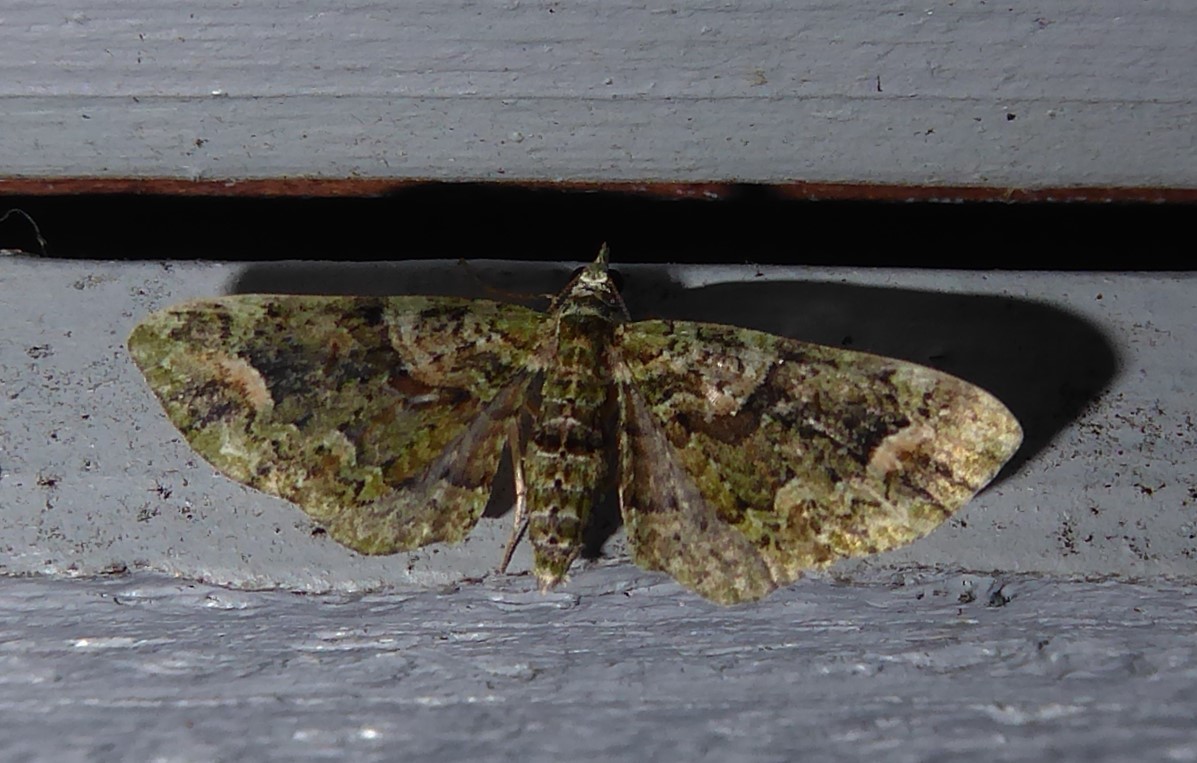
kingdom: Animalia
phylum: Arthropoda
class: Insecta
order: Lepidoptera
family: Geometridae
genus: Idaea
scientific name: Idaea mutanda
